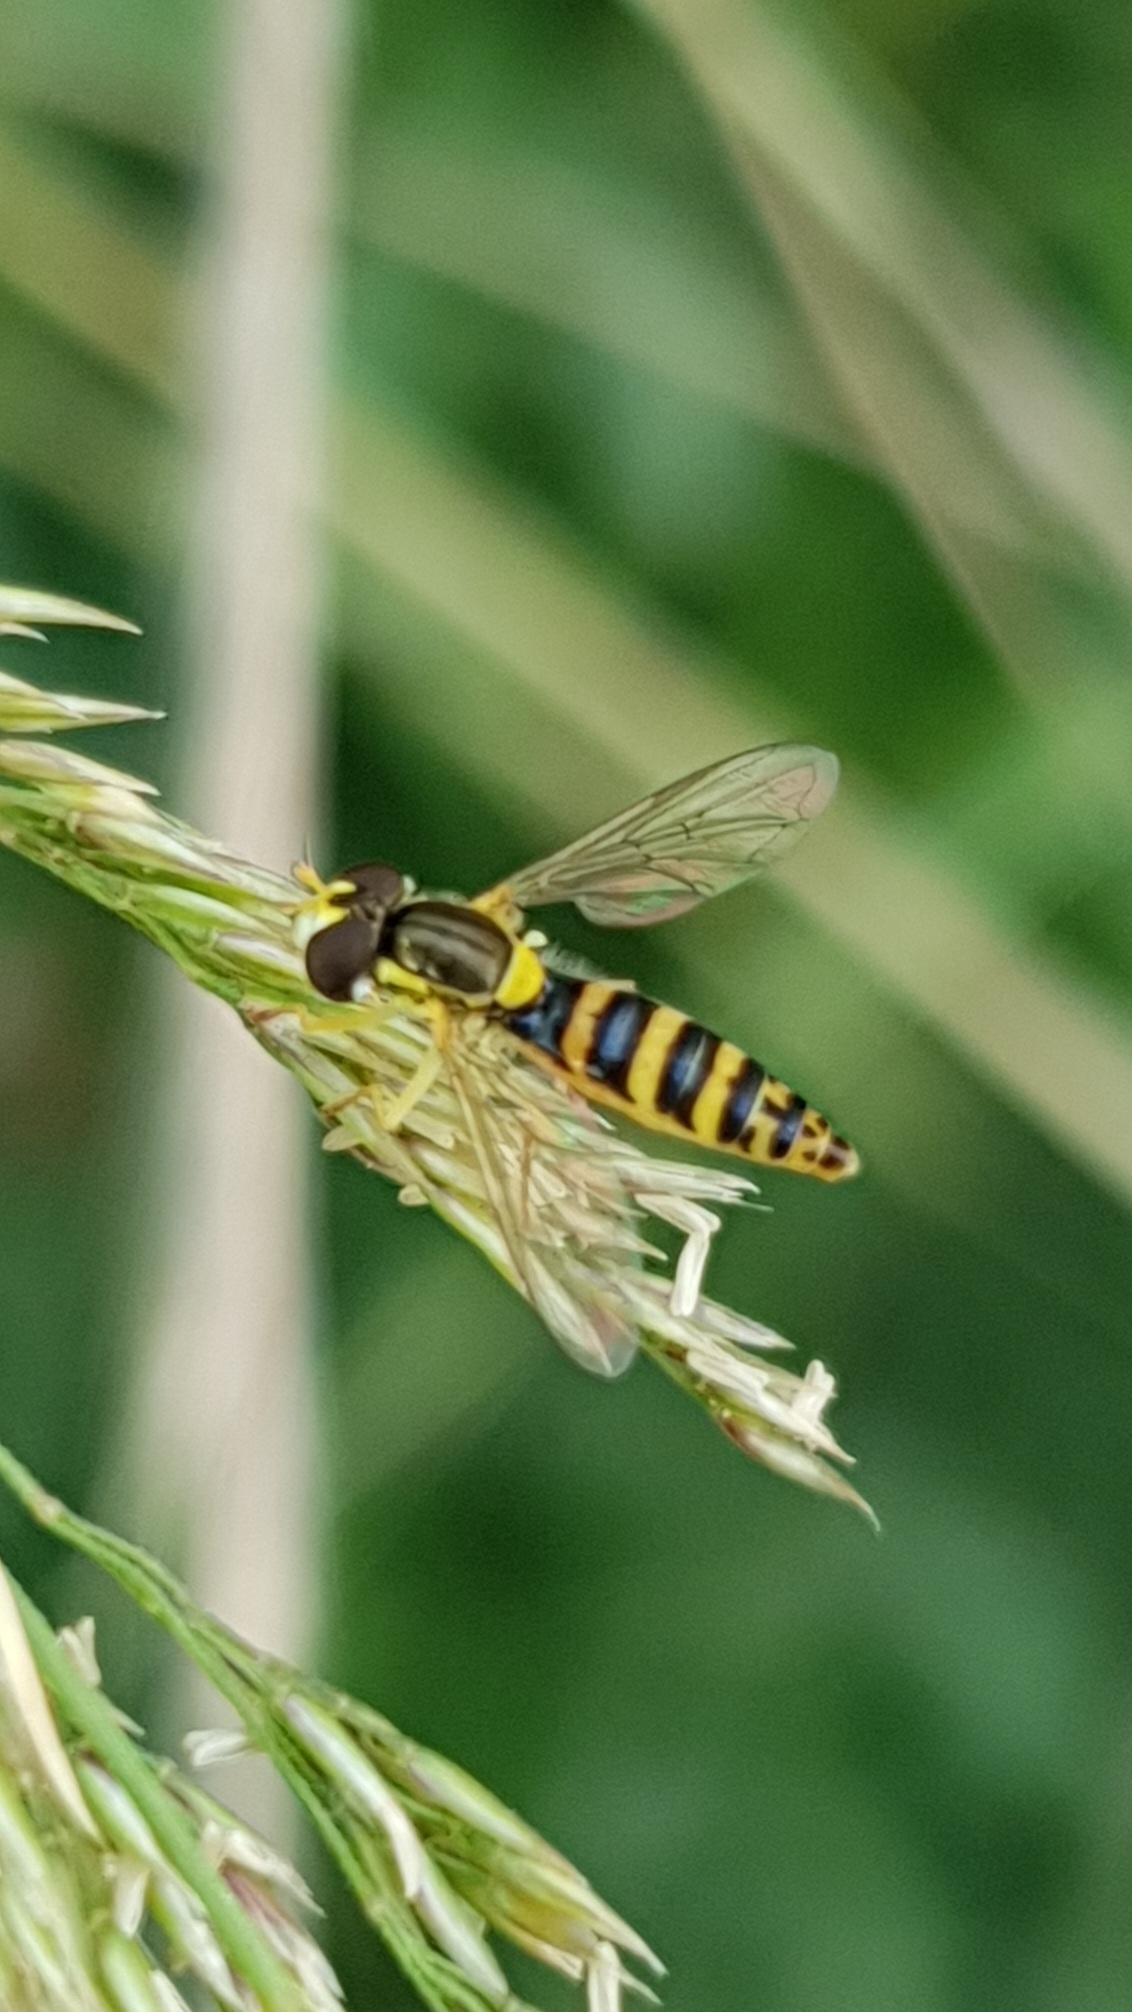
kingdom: Animalia
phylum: Arthropoda
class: Insecta
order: Diptera
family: Syrphidae
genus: Sphaerophoria
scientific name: Sphaerophoria
